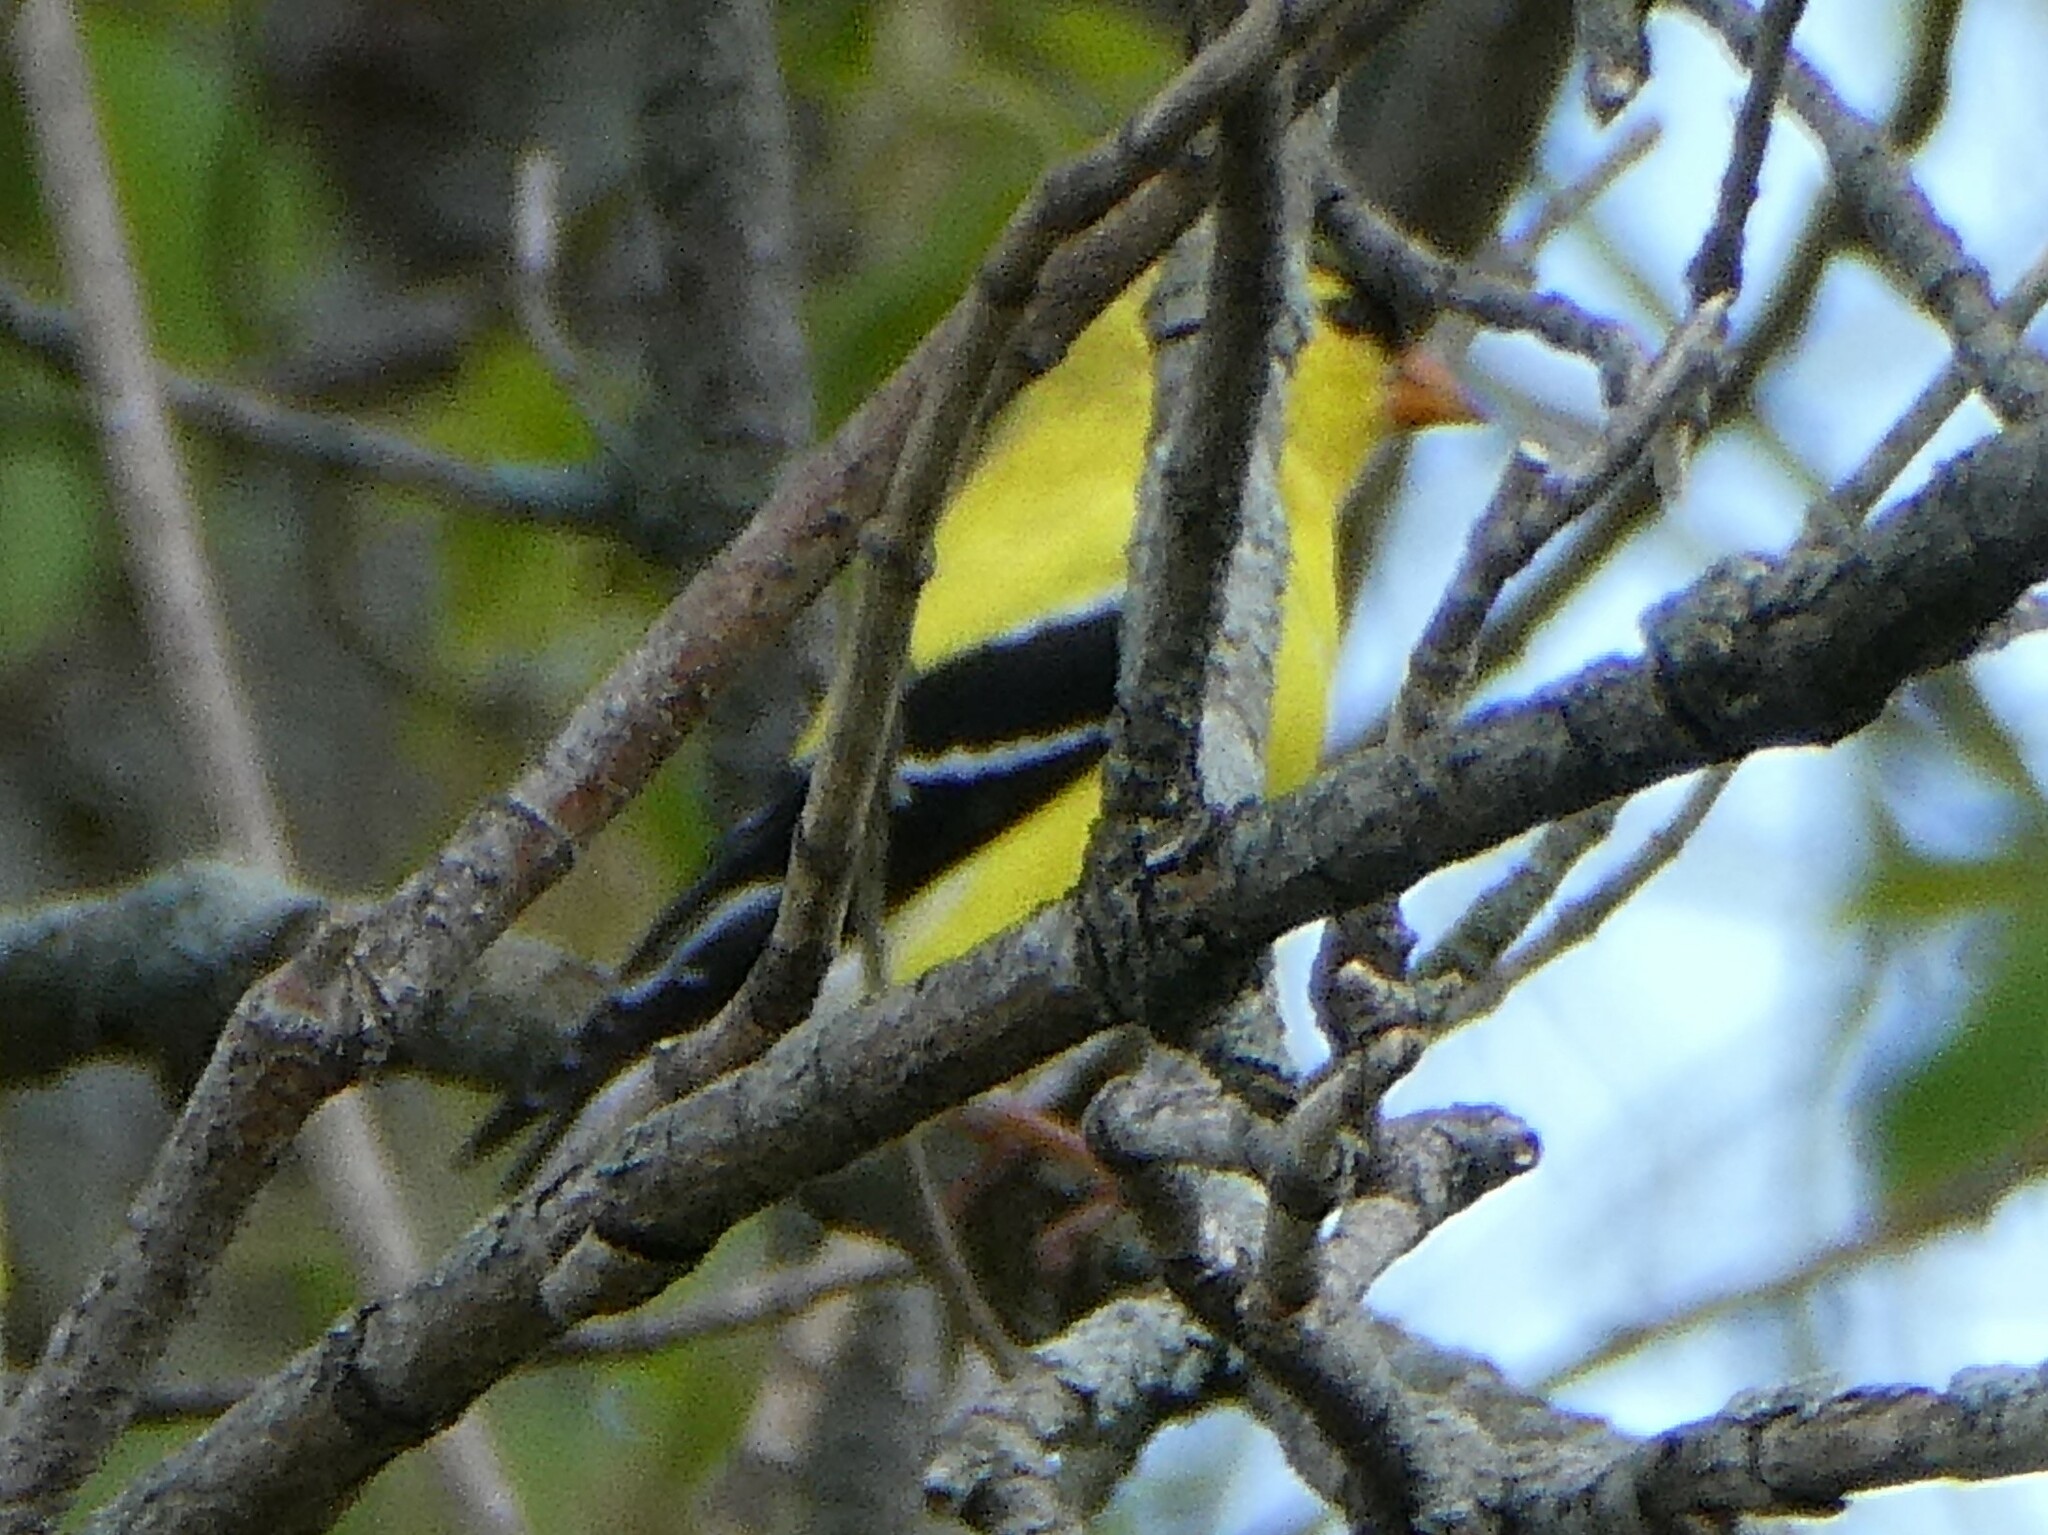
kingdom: Animalia
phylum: Chordata
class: Aves
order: Passeriformes
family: Fringillidae
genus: Spinus
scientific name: Spinus tristis
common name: American goldfinch
